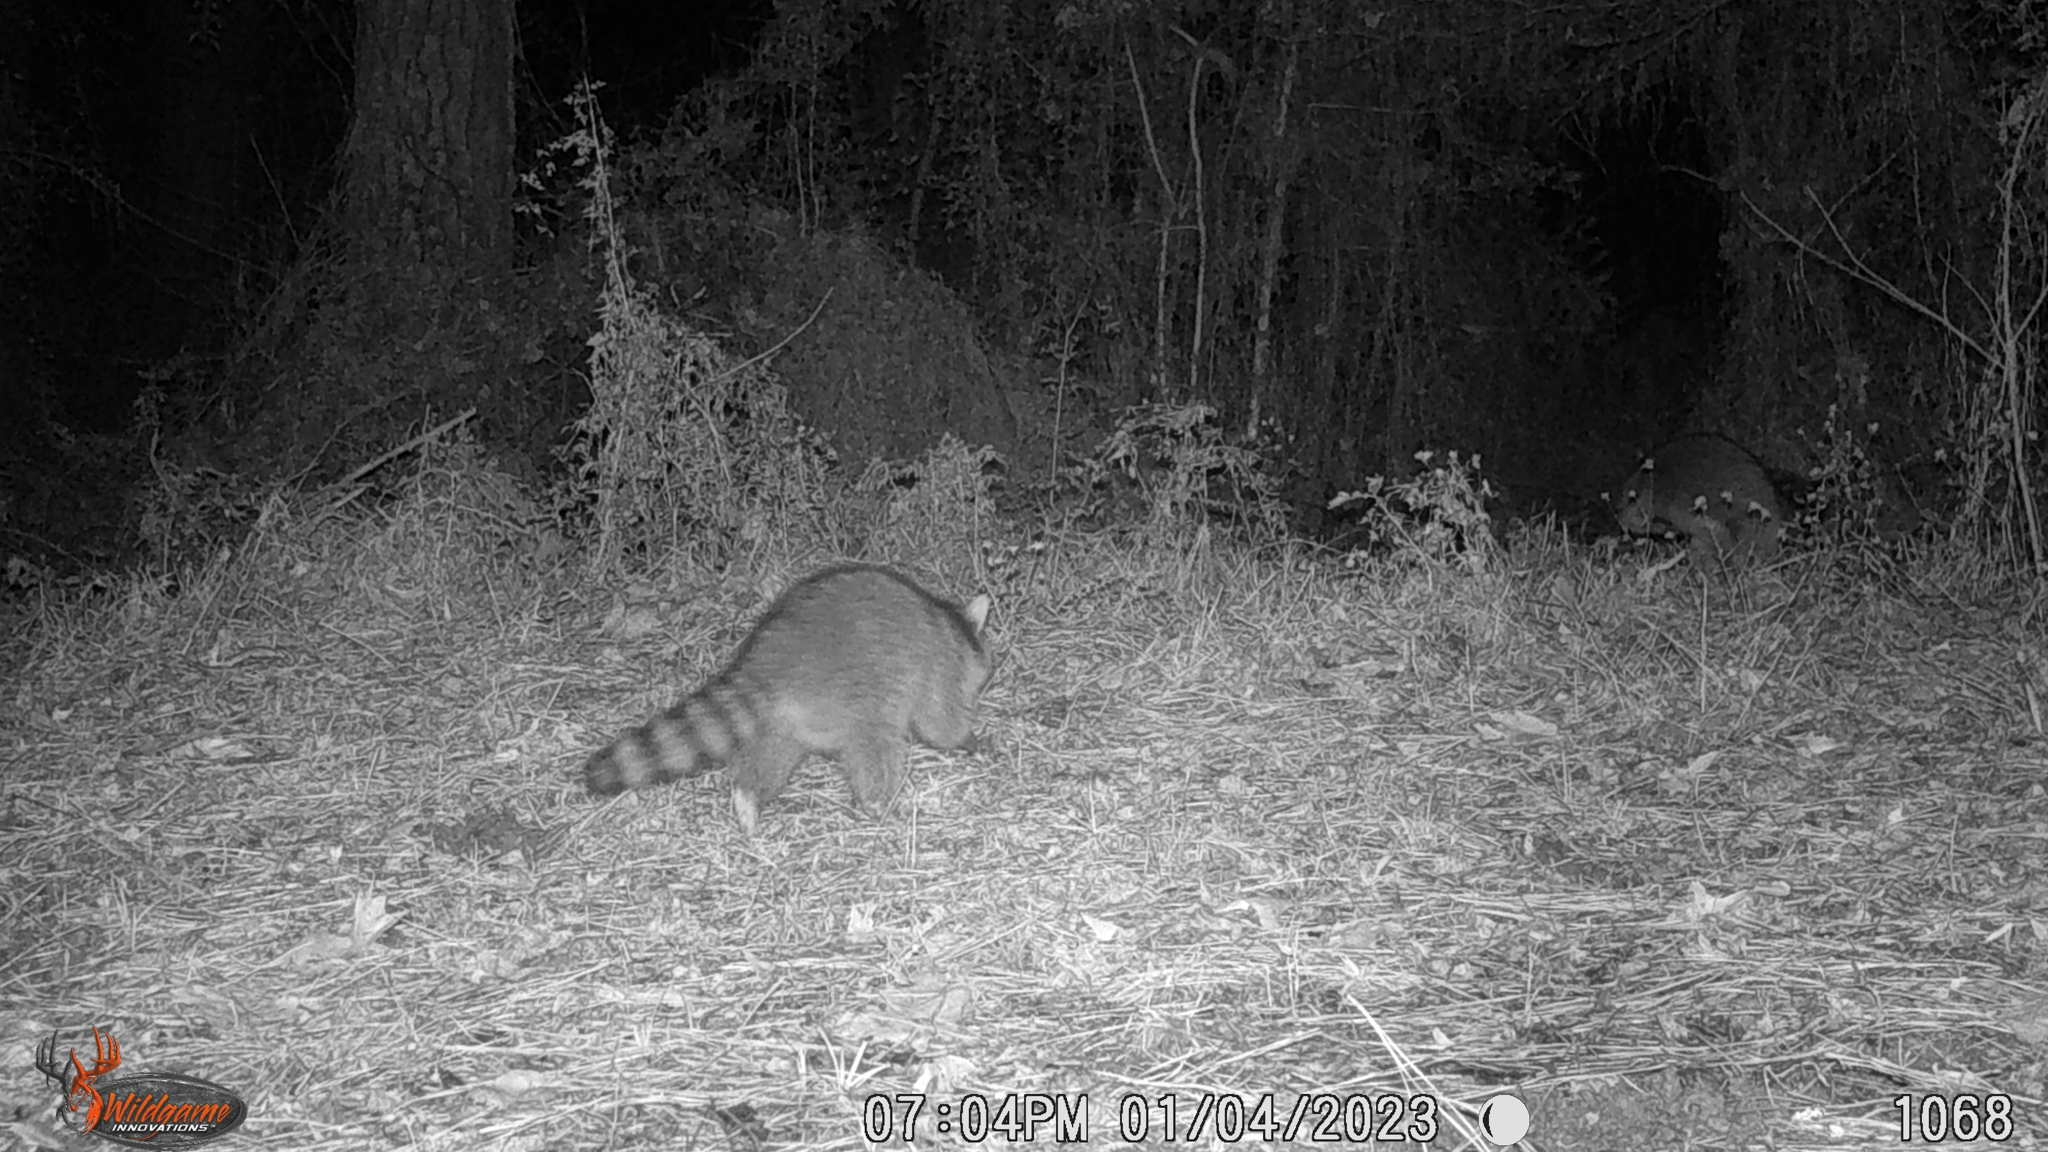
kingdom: Animalia
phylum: Chordata
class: Mammalia
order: Carnivora
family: Procyonidae
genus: Procyon
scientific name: Procyon lotor
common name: Raccoon
